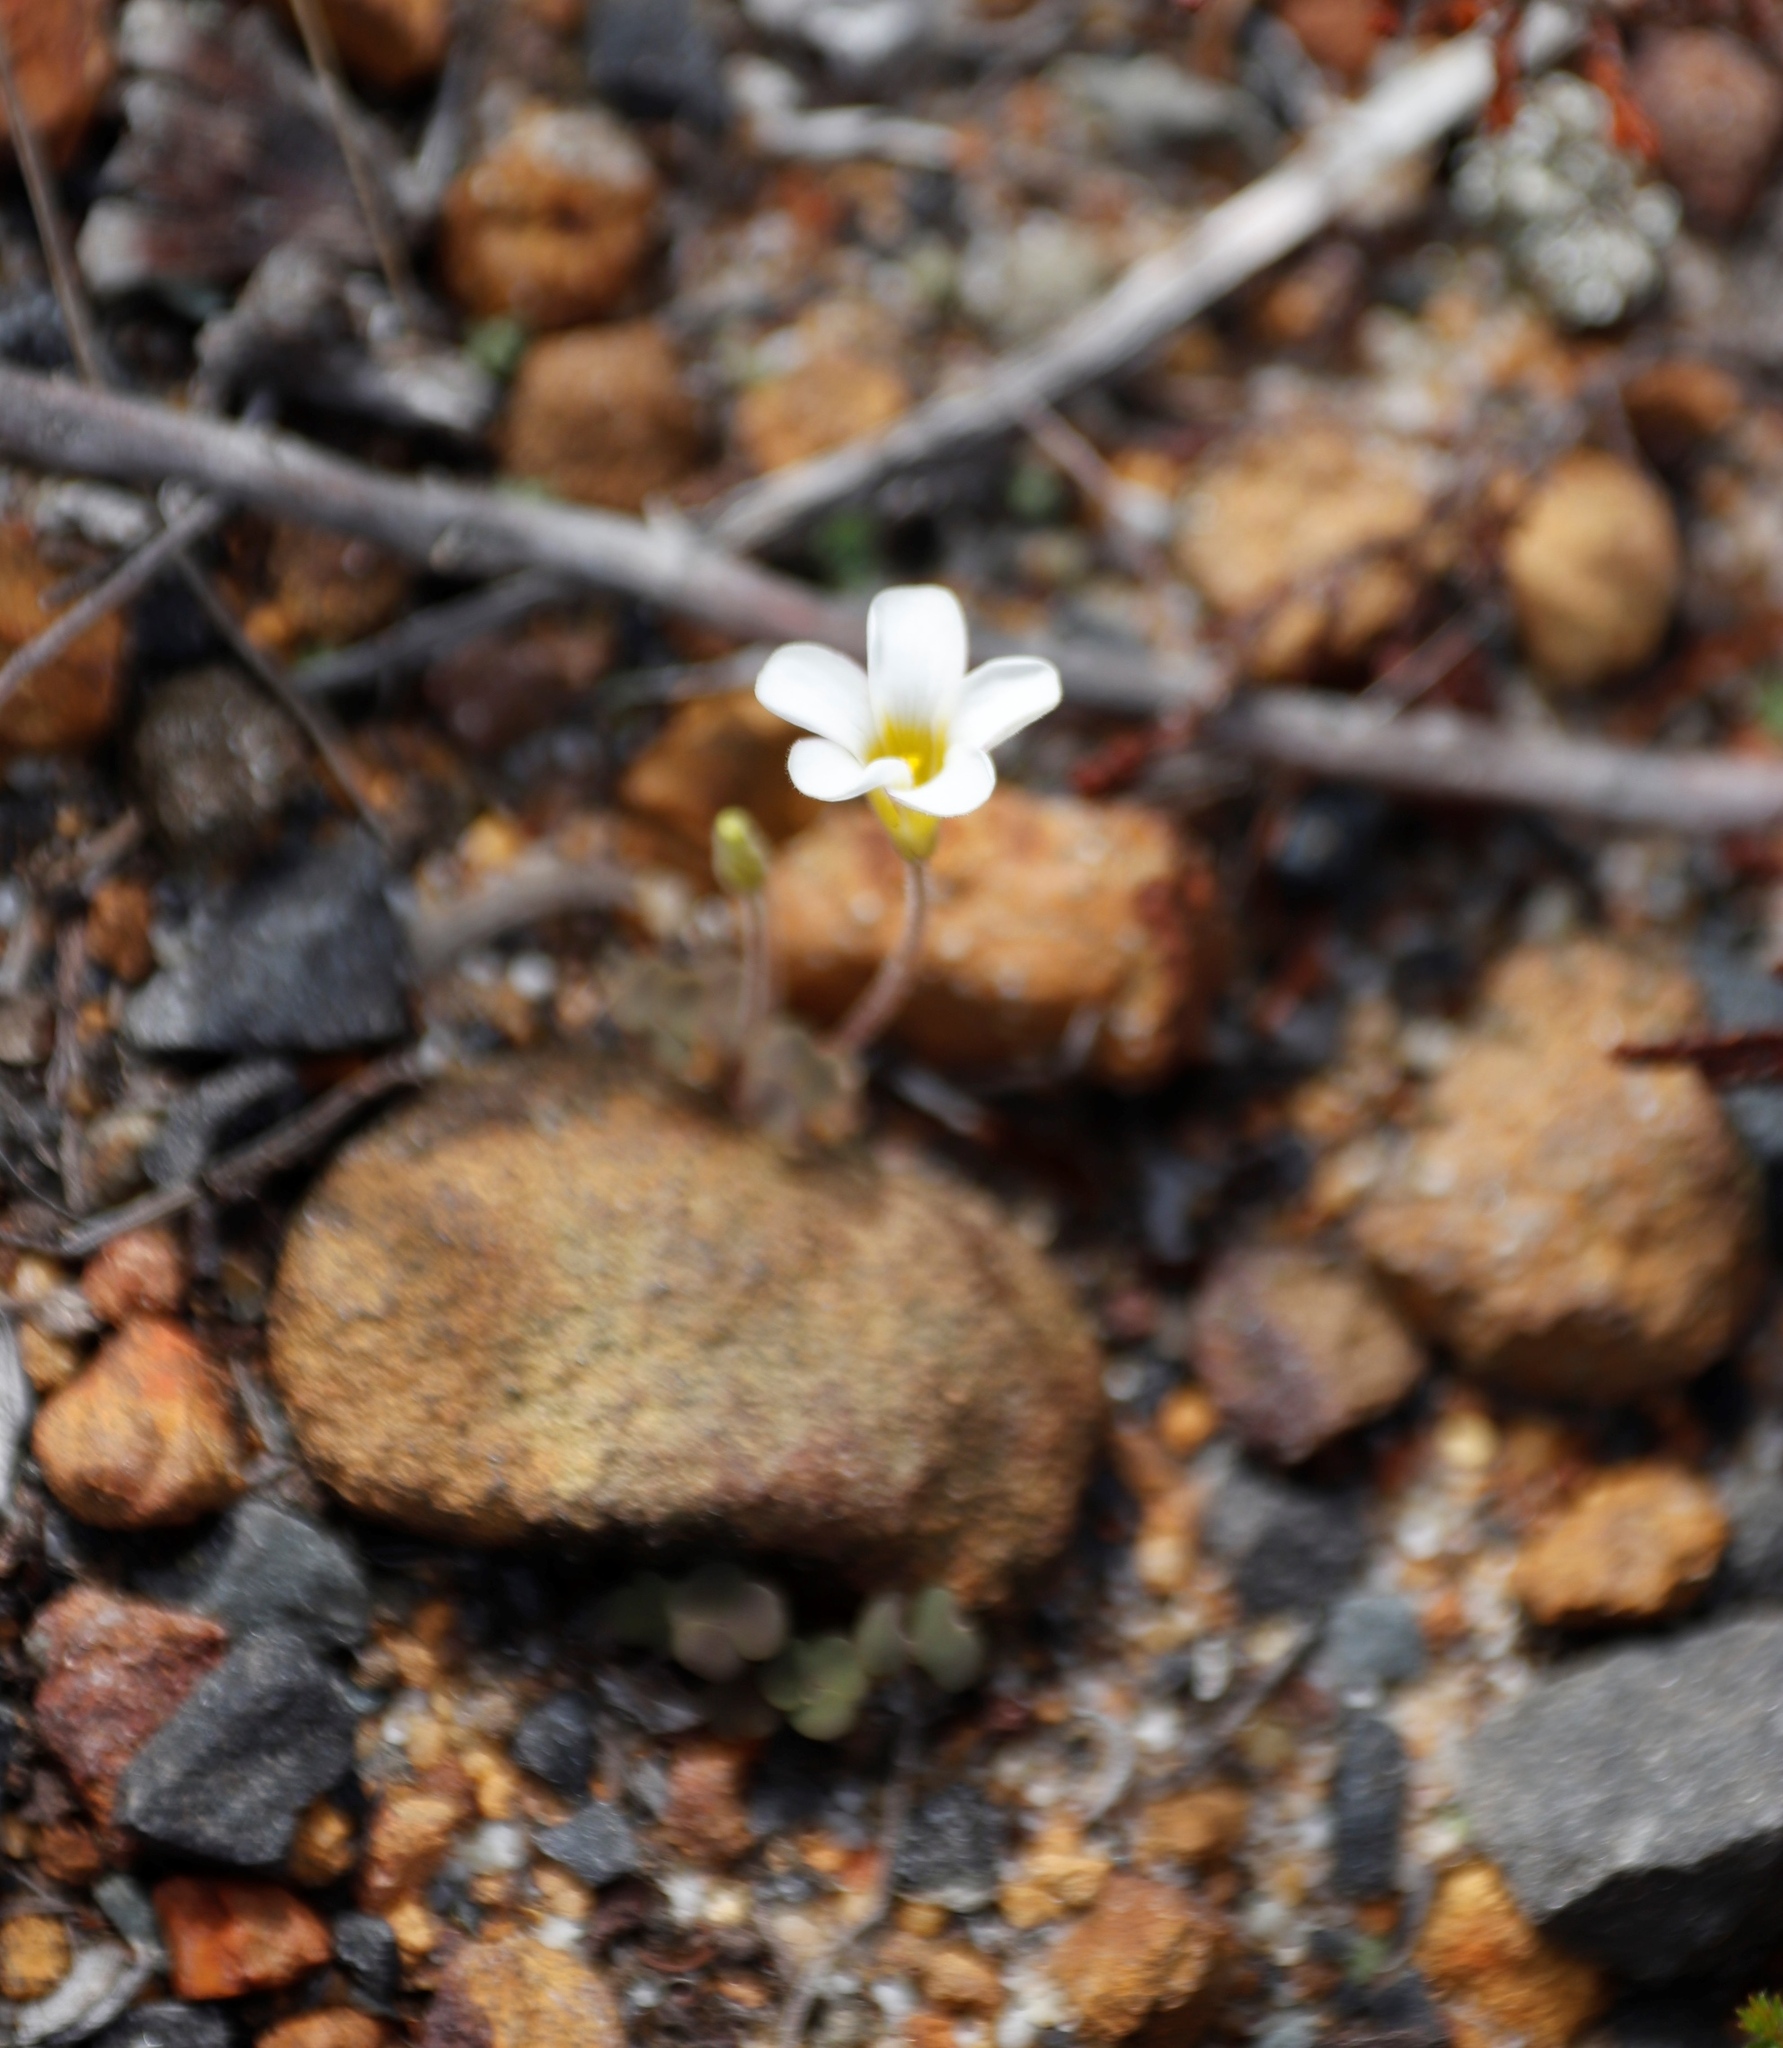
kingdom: Plantae
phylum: Tracheophyta
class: Magnoliopsida
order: Oxalidales
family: Oxalidaceae
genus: Oxalis
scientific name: Oxalis punctata
